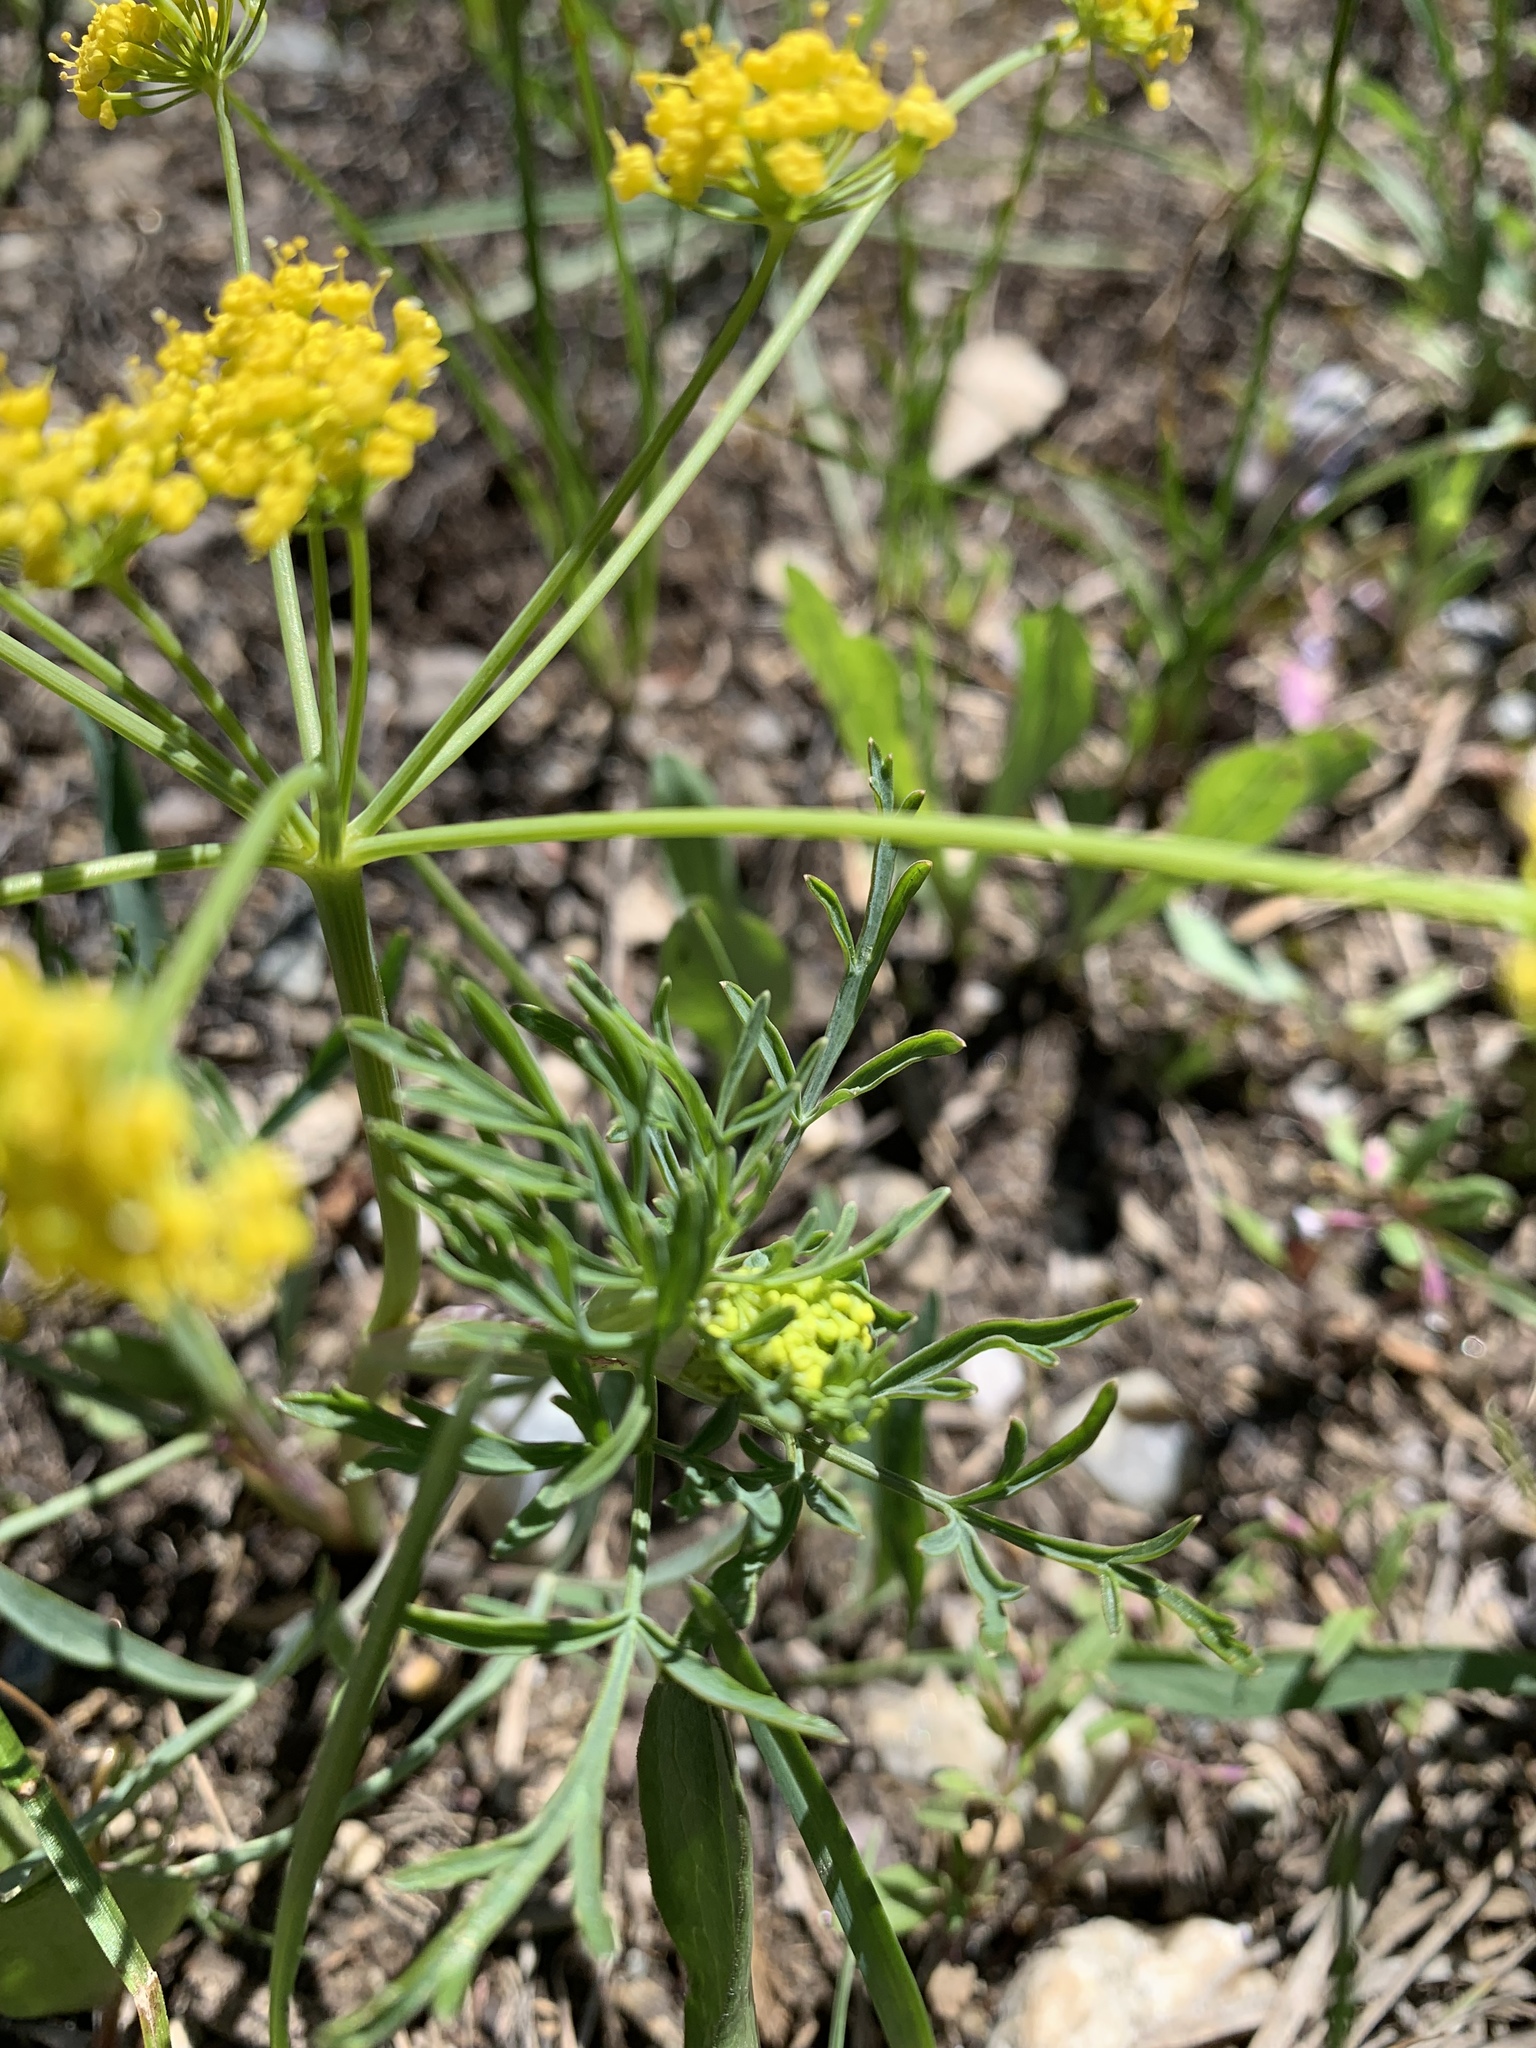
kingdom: Plantae
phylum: Tracheophyta
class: Magnoliopsida
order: Apiales
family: Apiaceae
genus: Lomatium
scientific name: Lomatium triternatum
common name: Ternate lomatium
